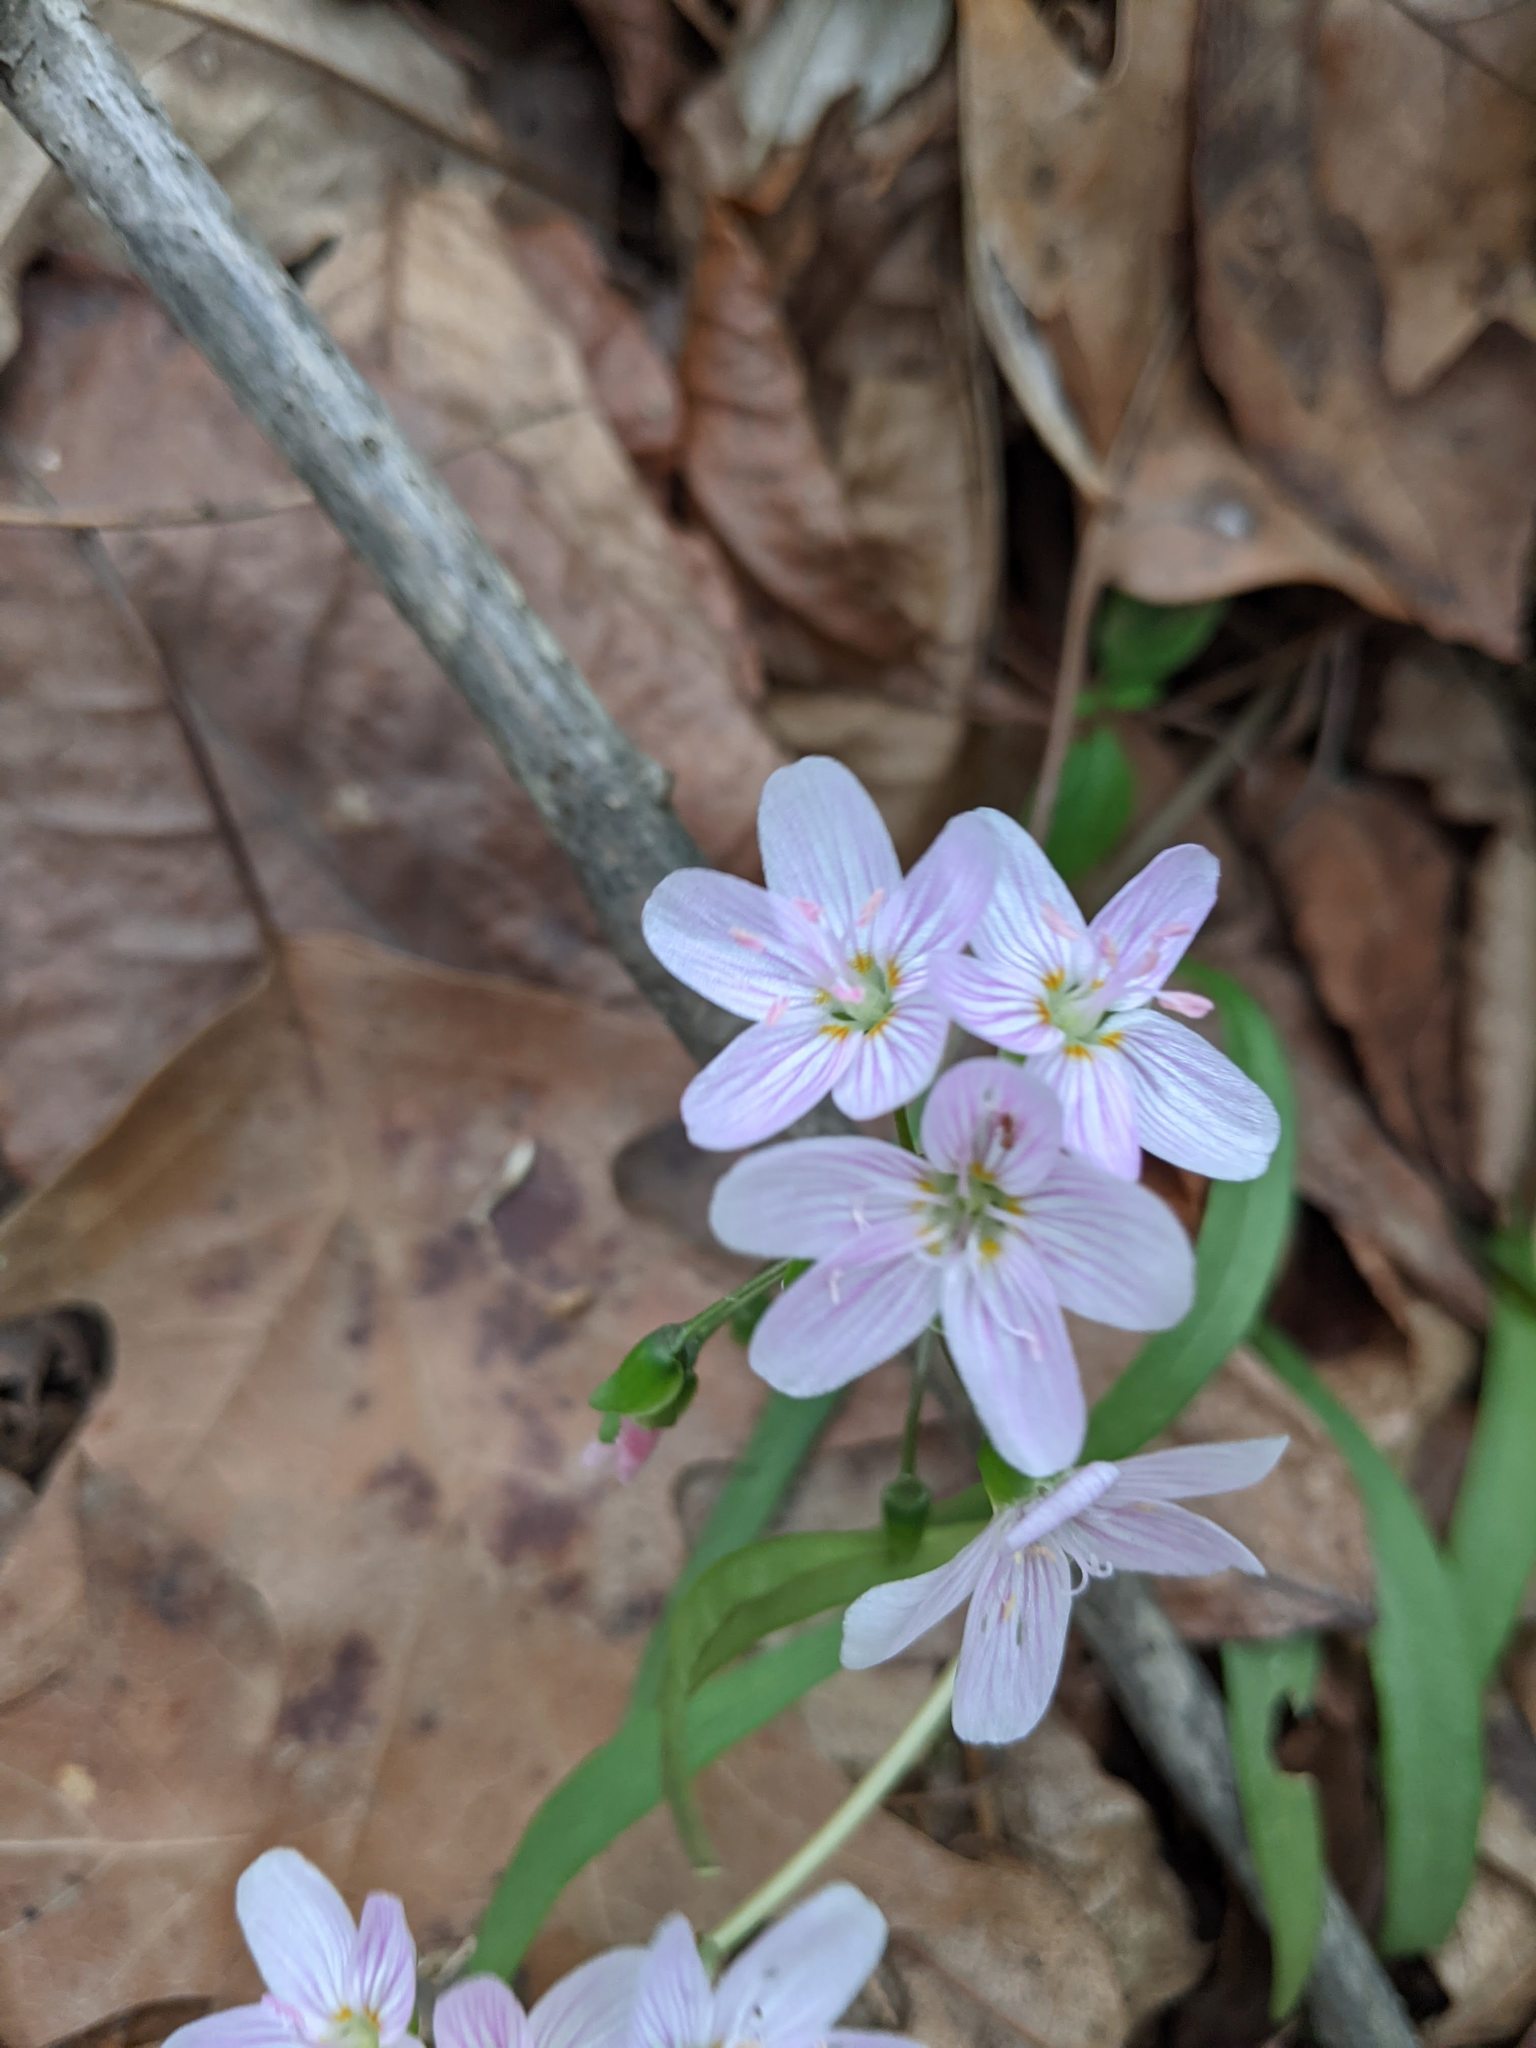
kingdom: Plantae
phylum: Tracheophyta
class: Magnoliopsida
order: Caryophyllales
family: Montiaceae
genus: Claytonia
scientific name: Claytonia virginica
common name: Virginia springbeauty
